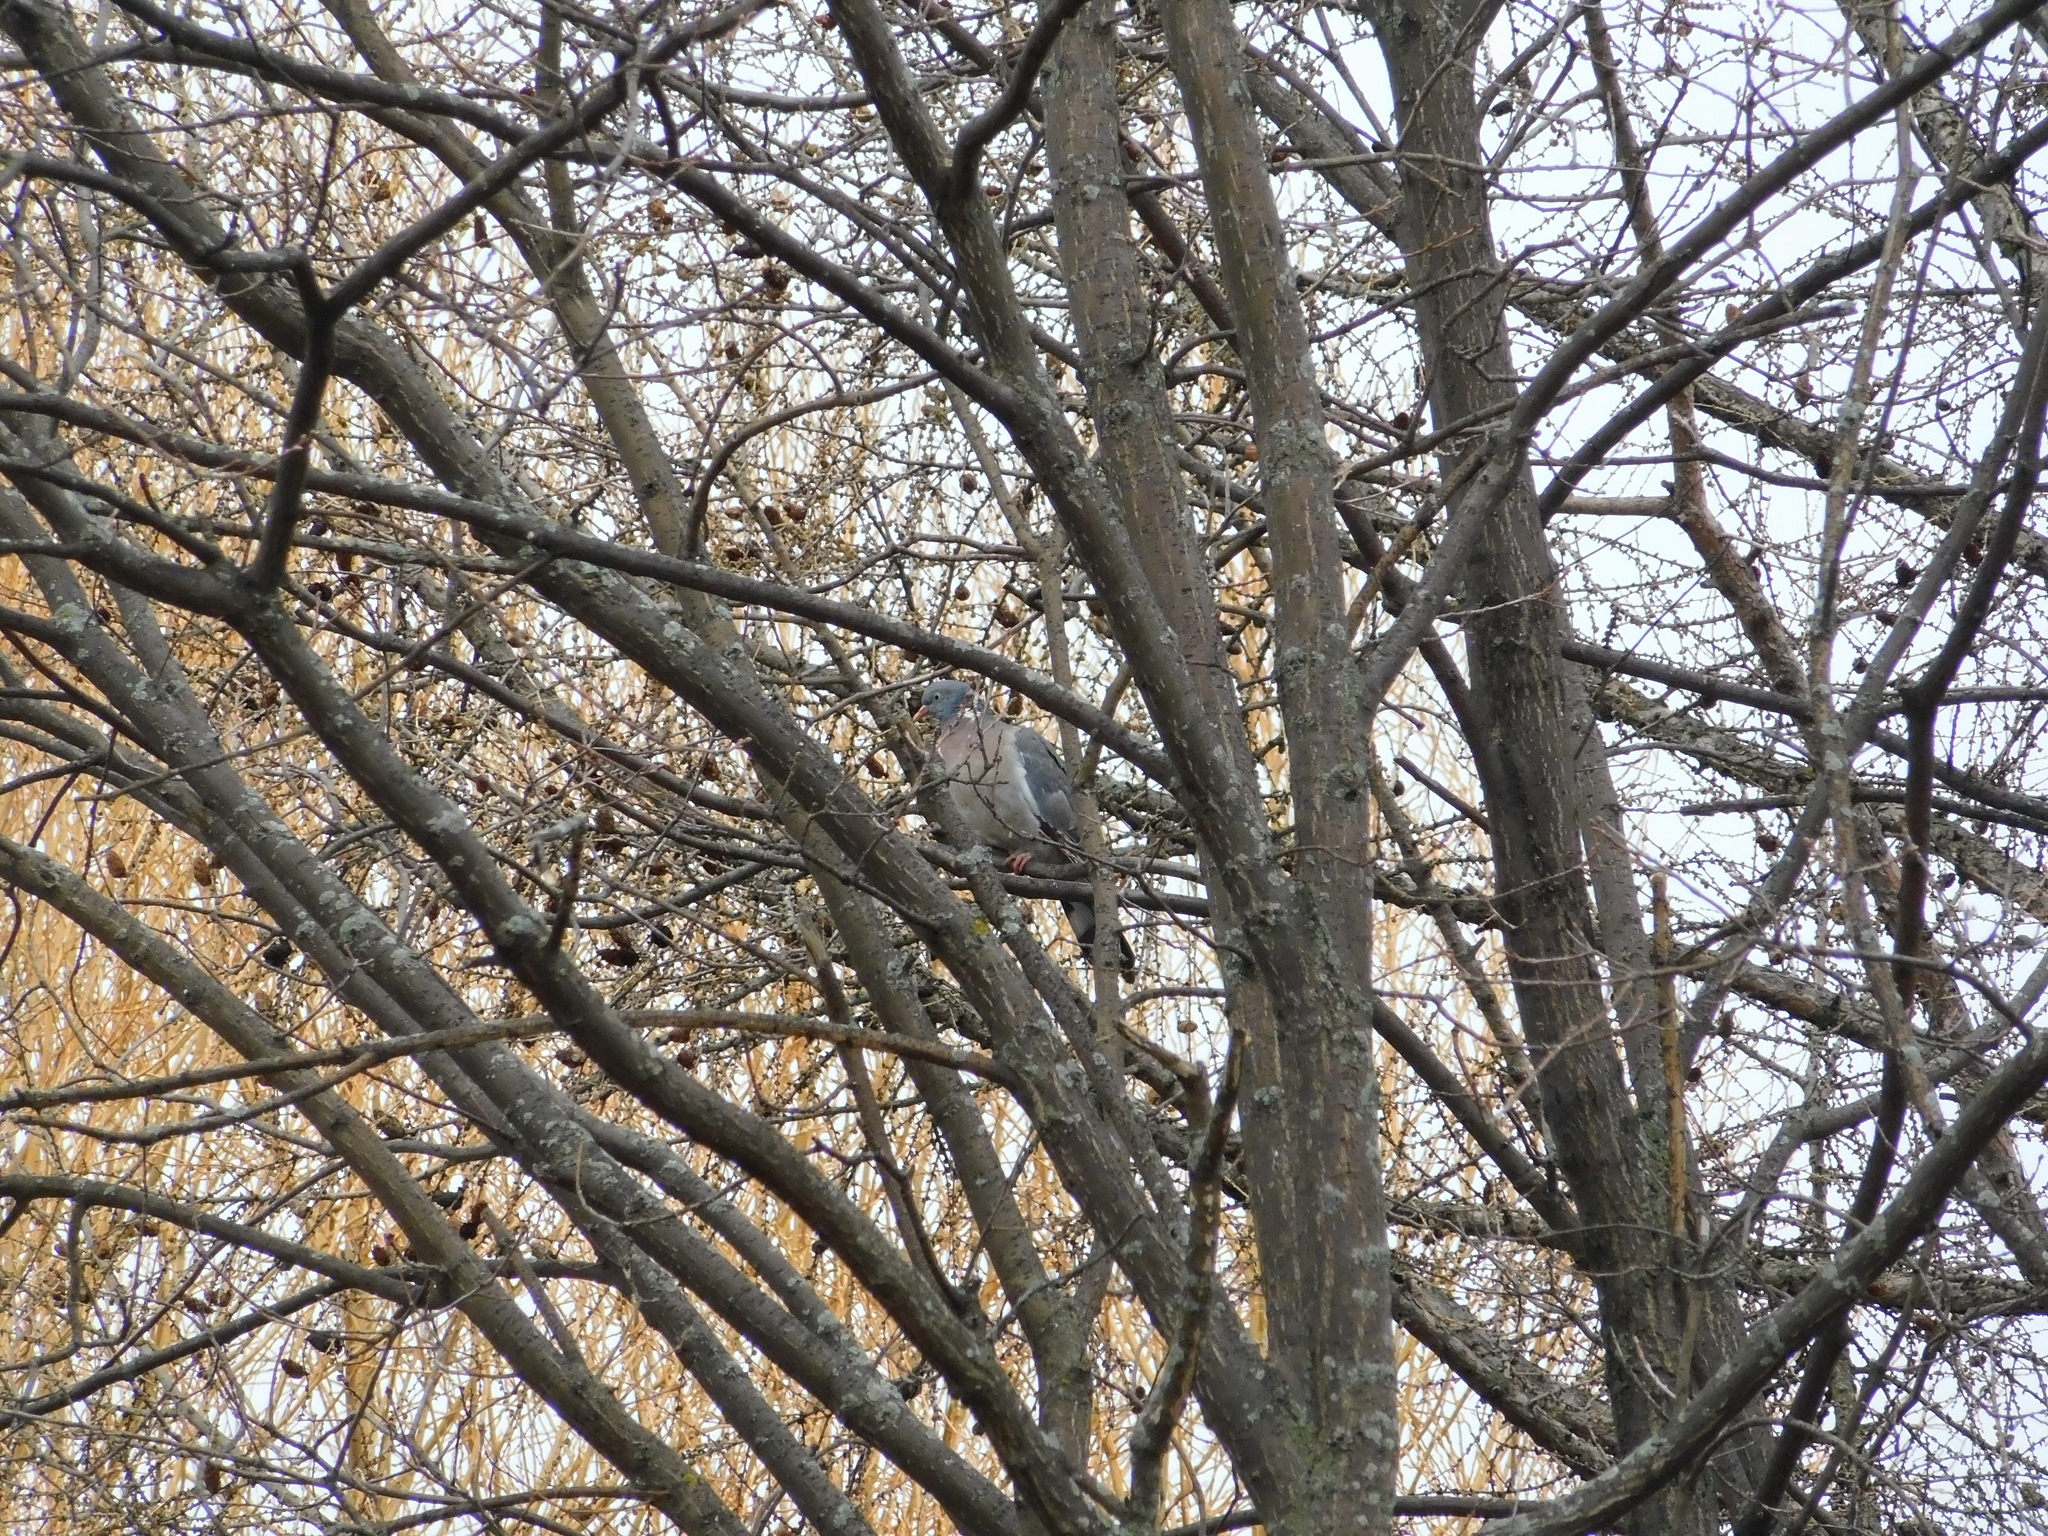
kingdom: Animalia
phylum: Chordata
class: Aves
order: Columbiformes
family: Columbidae
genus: Columba
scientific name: Columba palumbus
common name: Common wood pigeon
